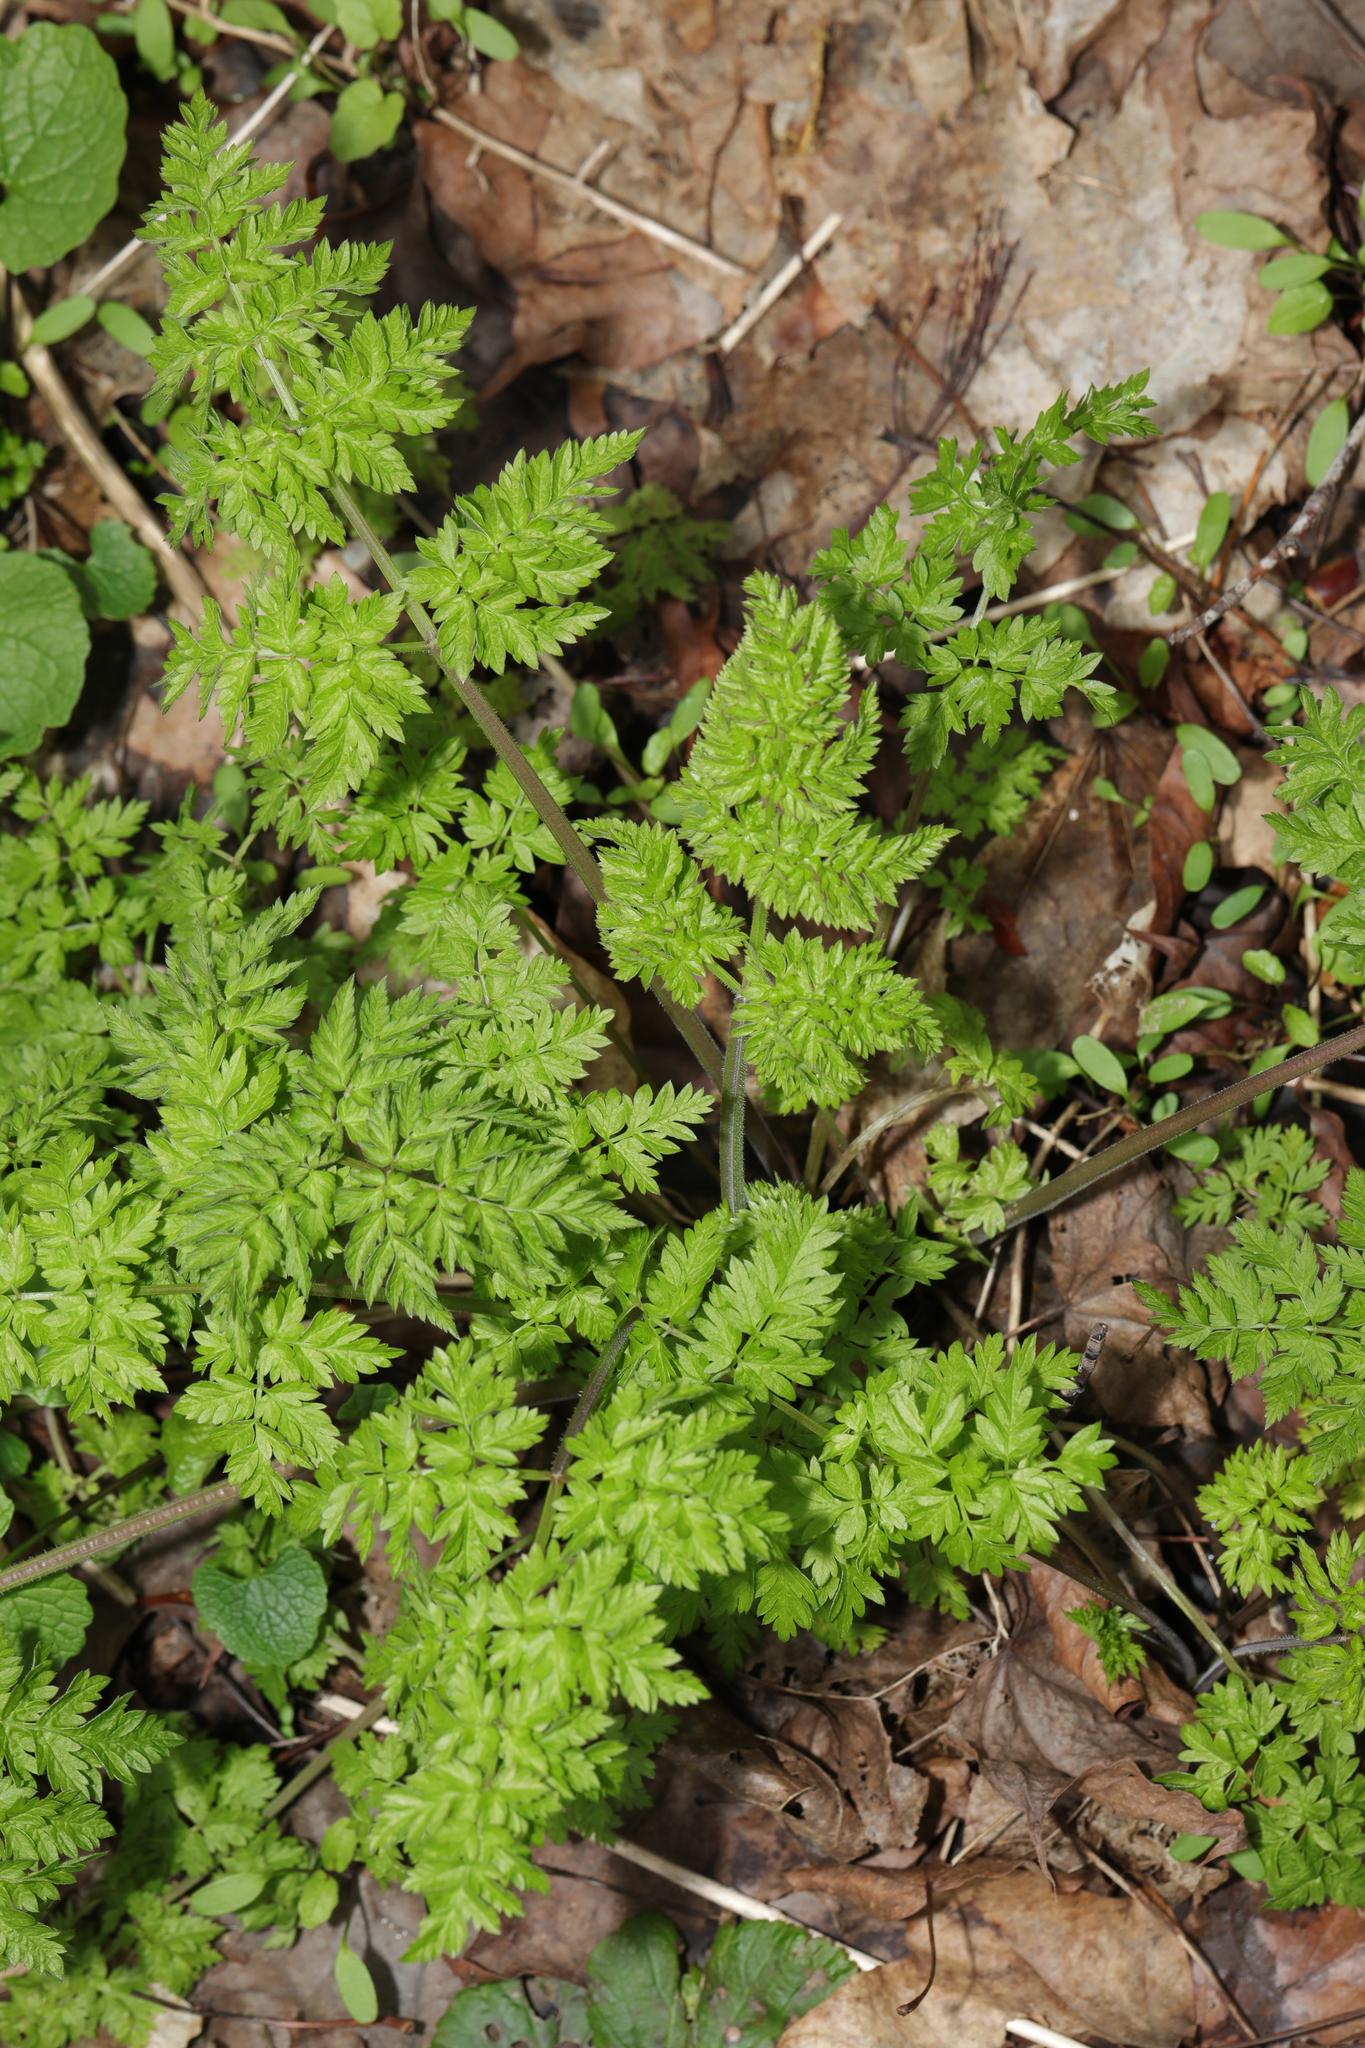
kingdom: Plantae
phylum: Tracheophyta
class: Magnoliopsida
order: Apiales
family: Apiaceae
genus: Anthriscus
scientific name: Anthriscus sylvestris
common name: Cow parsley
